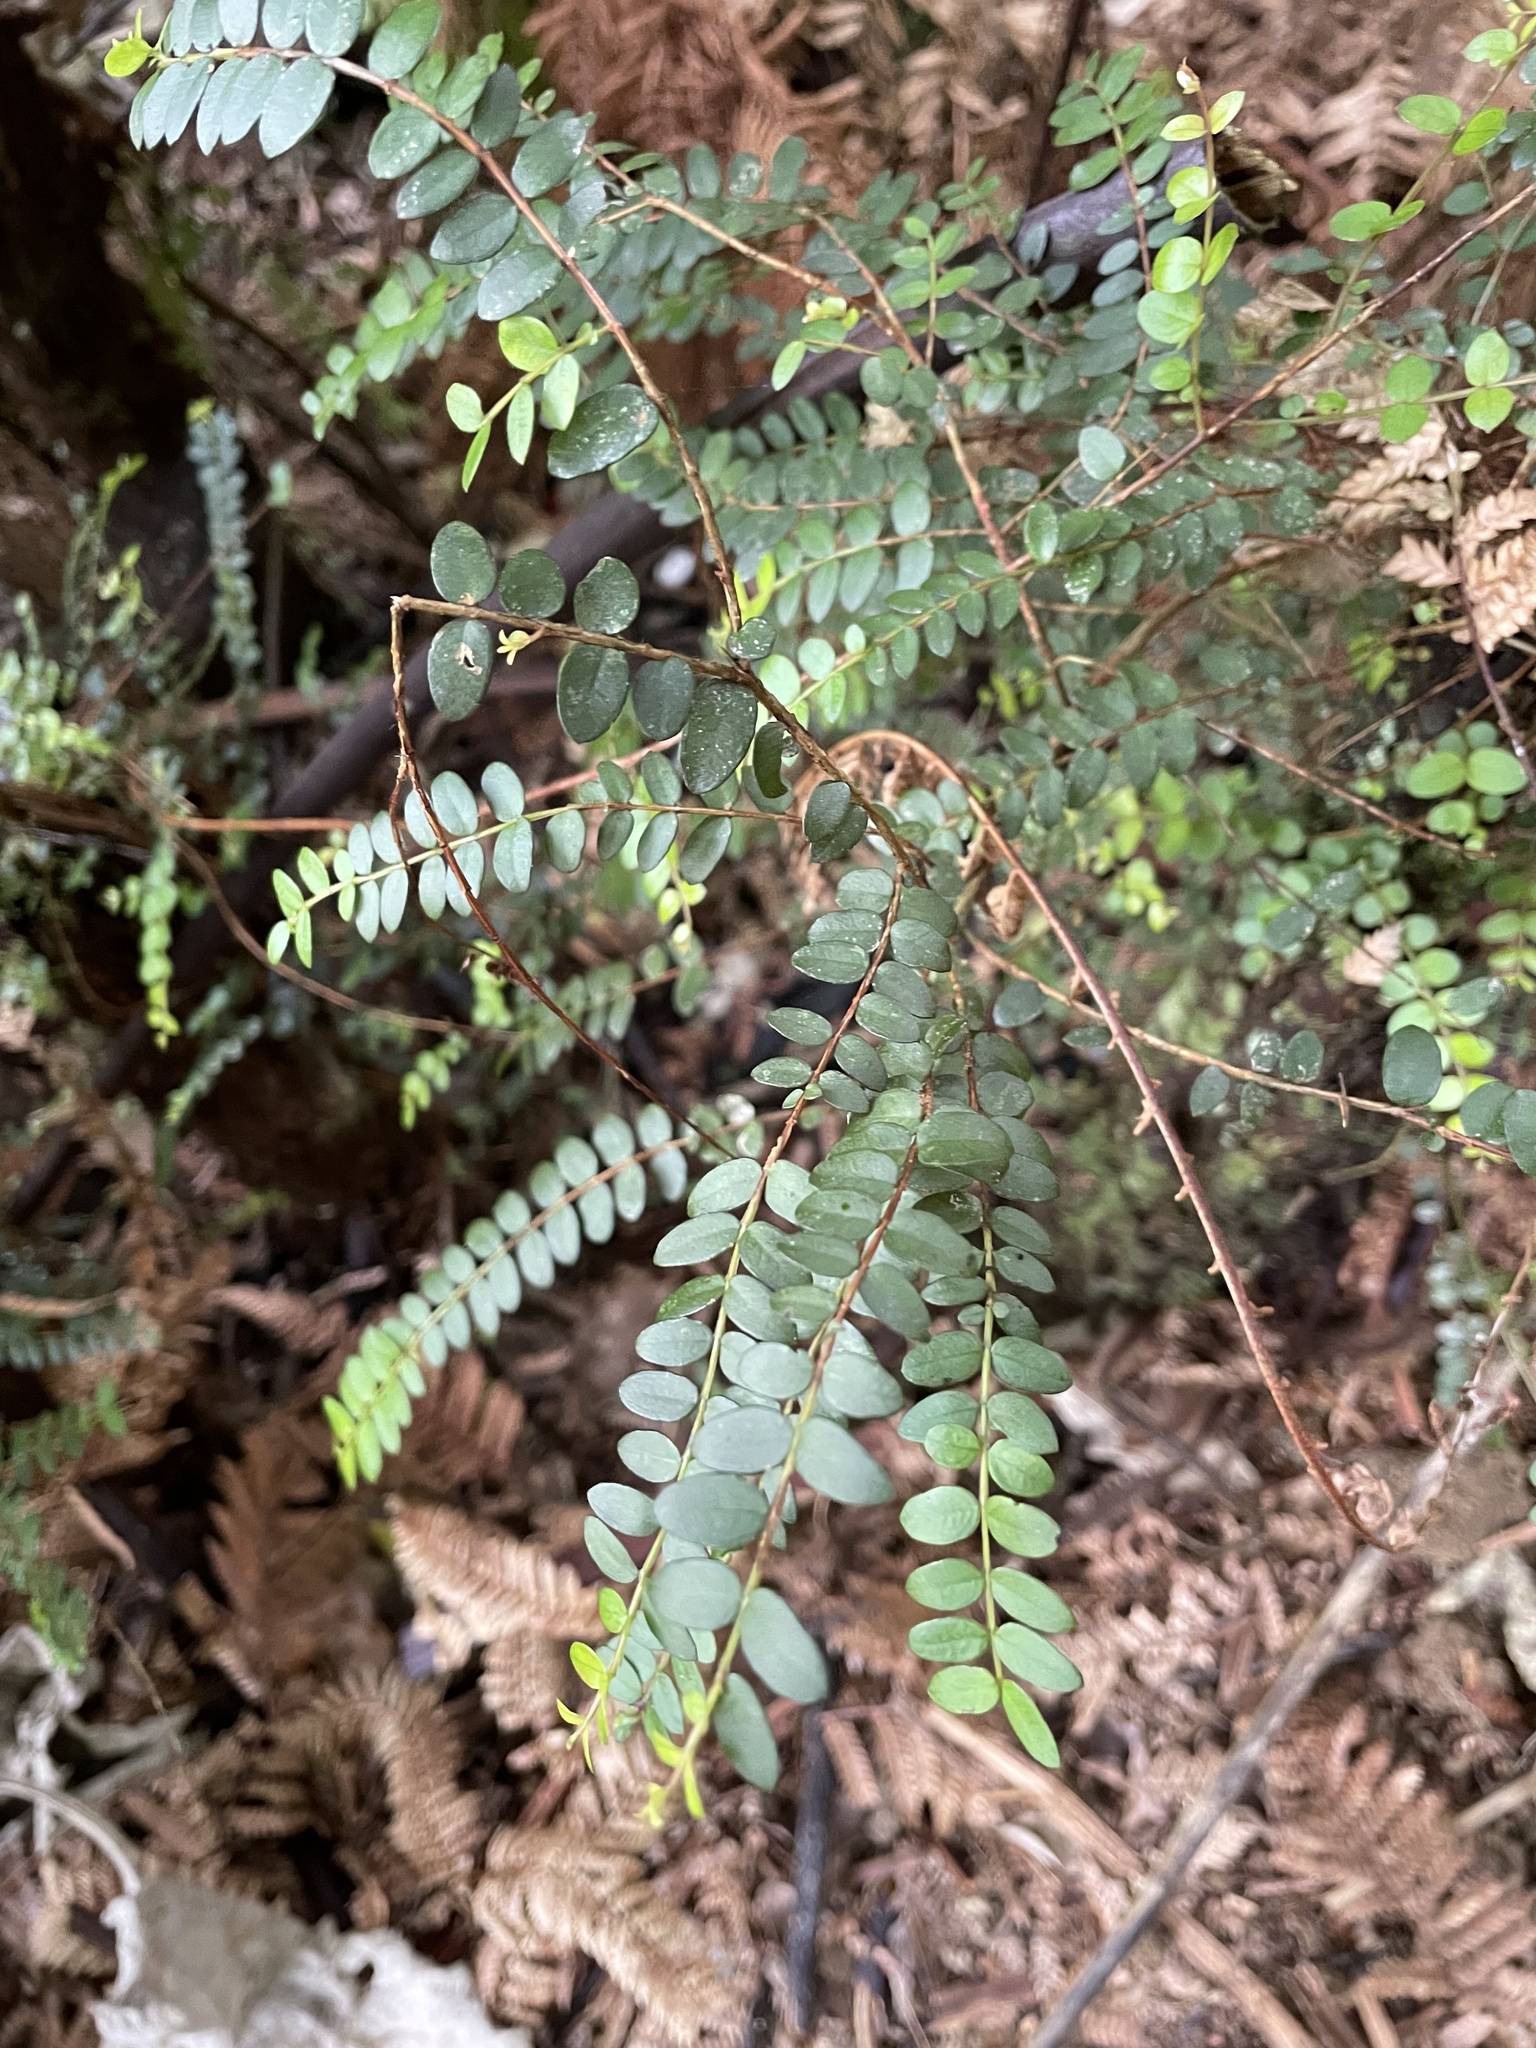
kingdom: Plantae
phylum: Tracheophyta
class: Magnoliopsida
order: Myrtales
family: Myrtaceae
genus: Metrosideros
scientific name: Metrosideros diffusa
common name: Small ratavine
